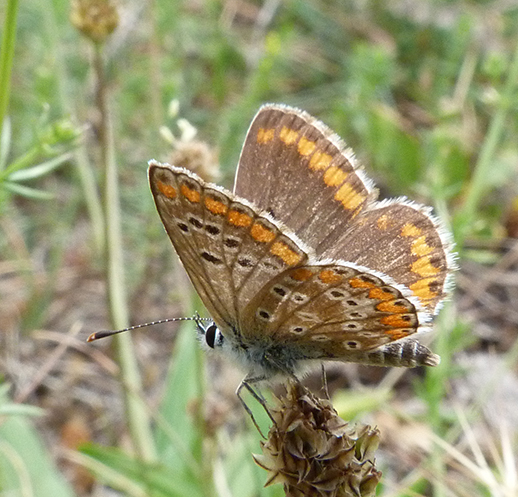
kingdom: Animalia
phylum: Arthropoda
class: Insecta
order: Lepidoptera
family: Lycaenidae
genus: Aricia
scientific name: Aricia cramera
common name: Eschscholtz´s brown  argus
